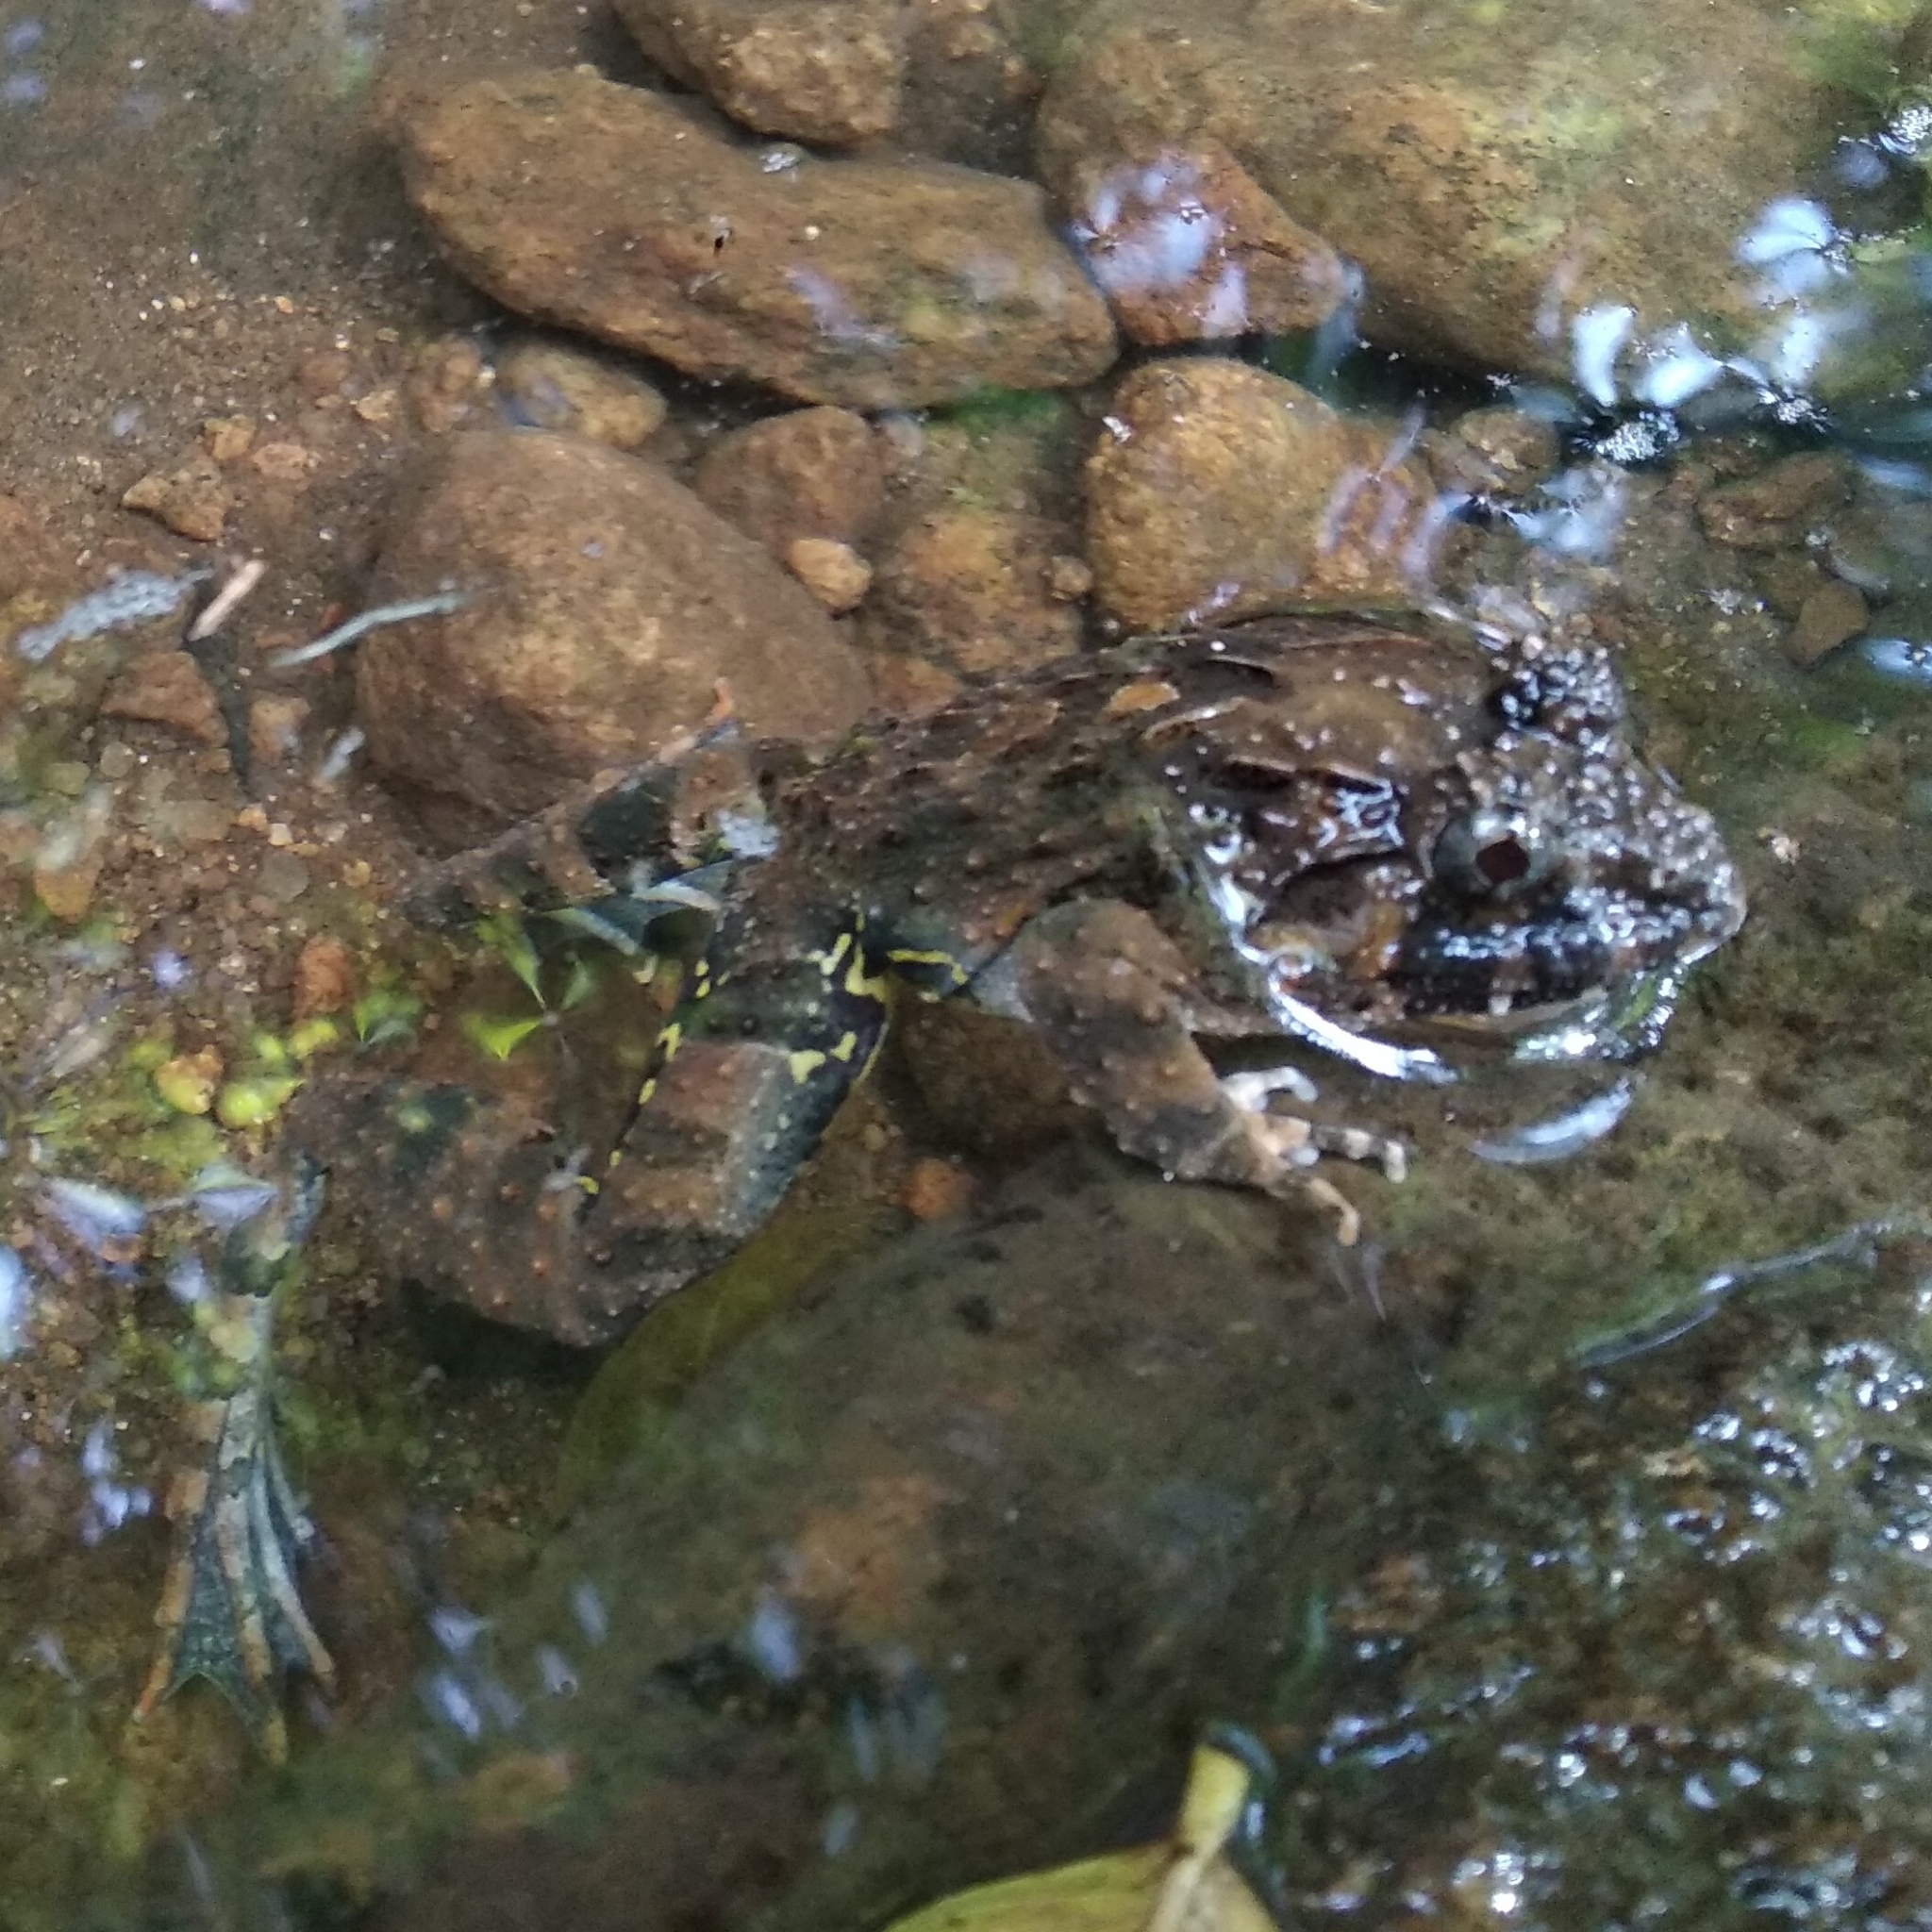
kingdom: Animalia
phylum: Chordata
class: Amphibia
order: Anura
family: Dicroglossidae
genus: Minervarya
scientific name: Minervarya keralensis
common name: Dubois' hill frog
